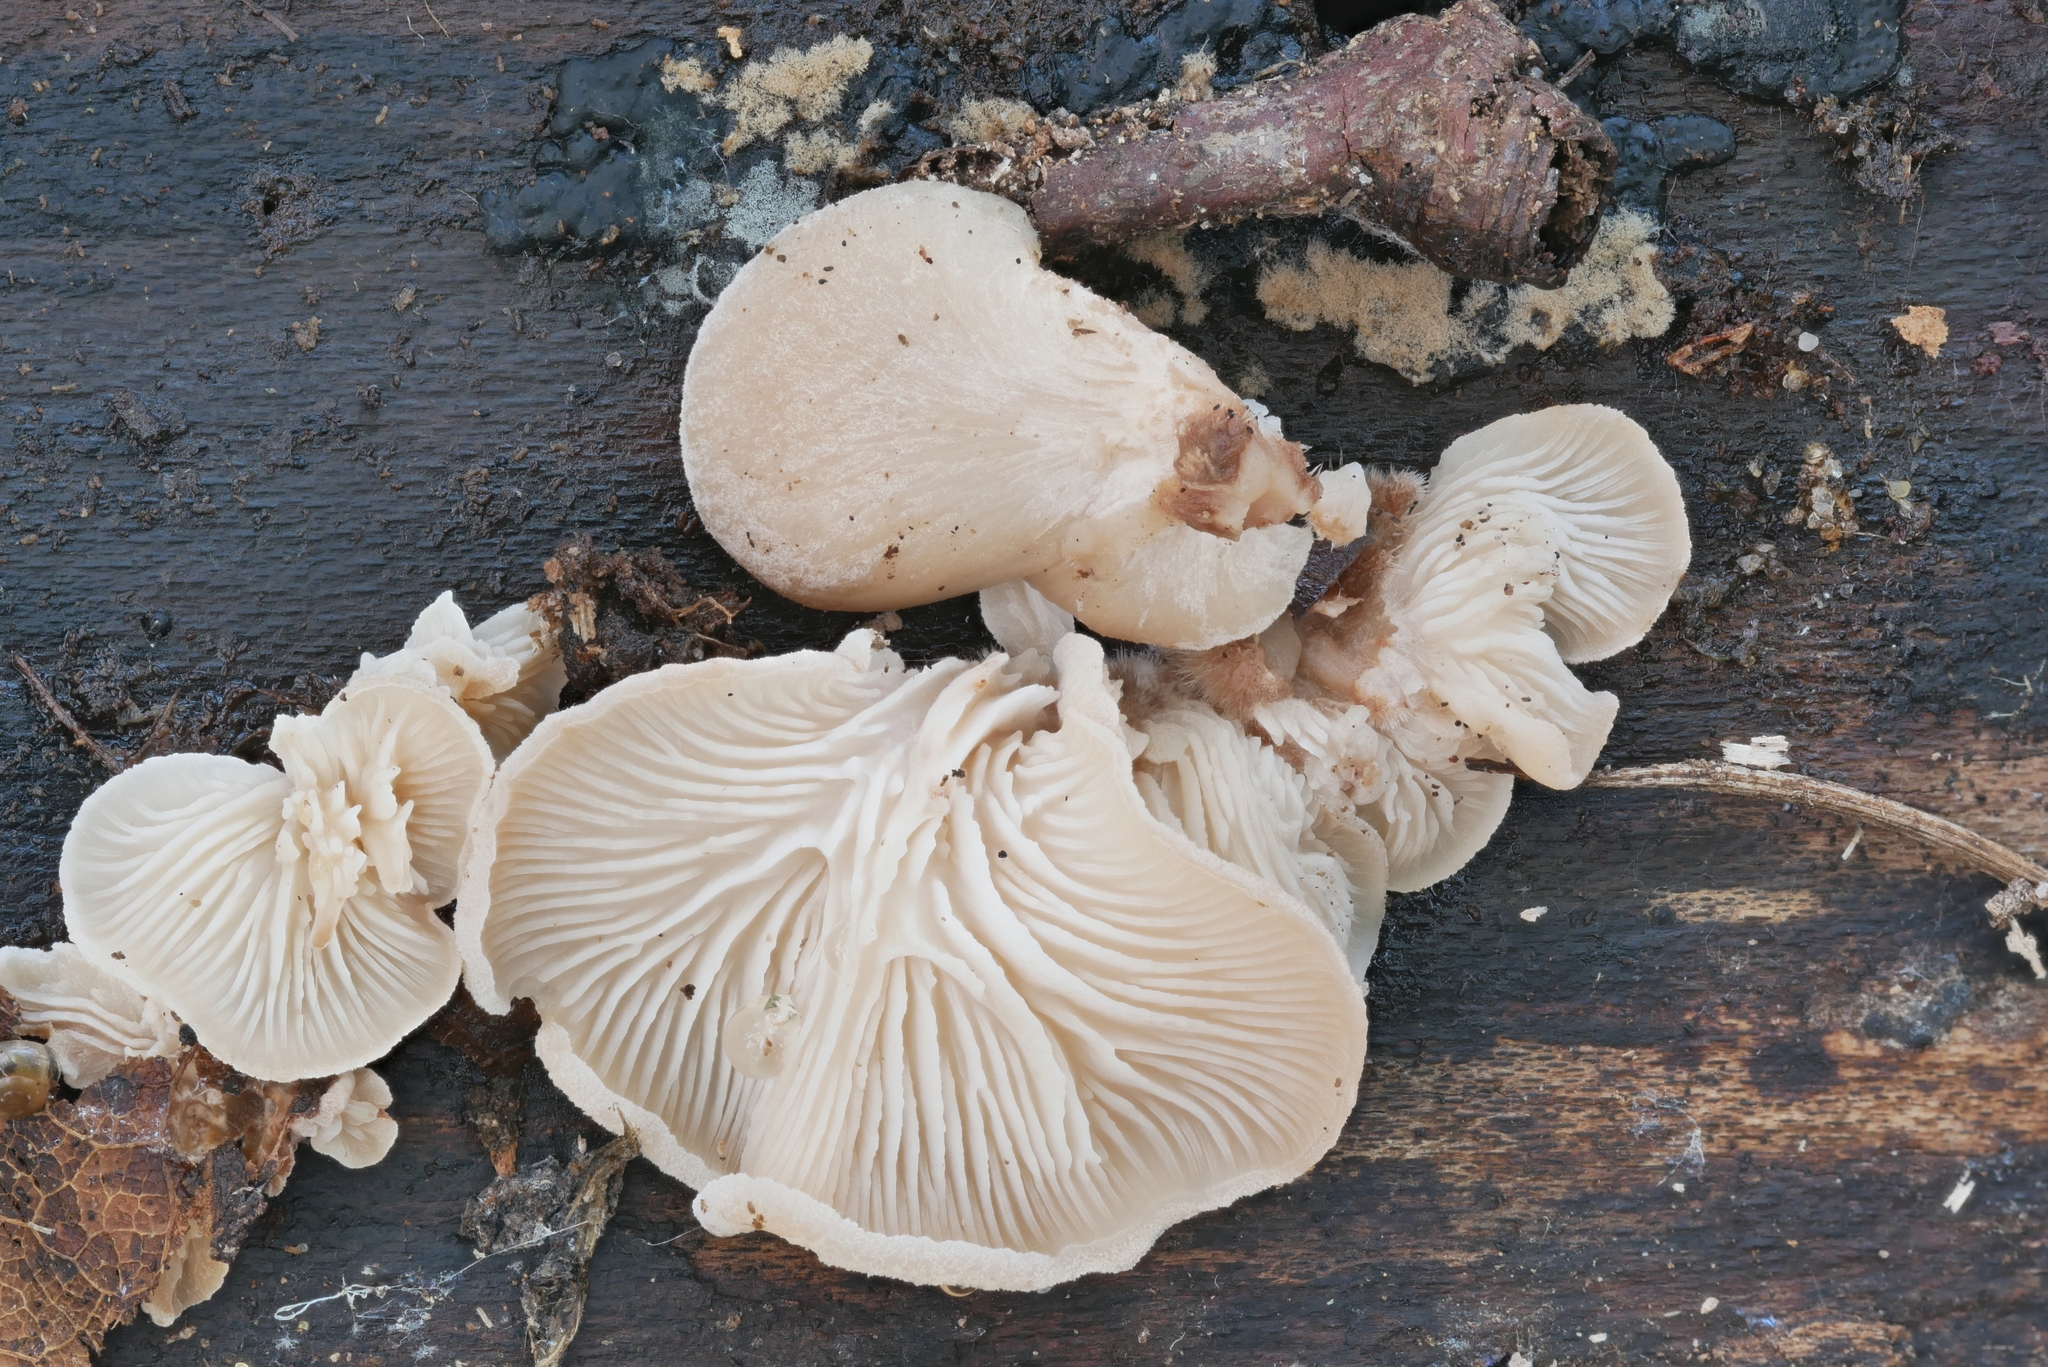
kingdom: Fungi
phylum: Basidiomycota
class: Agaricomycetes
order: Russulales
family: Auriscalpiaceae
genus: Lentinellus
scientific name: Lentinellus ursinus
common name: Bear lentinus
